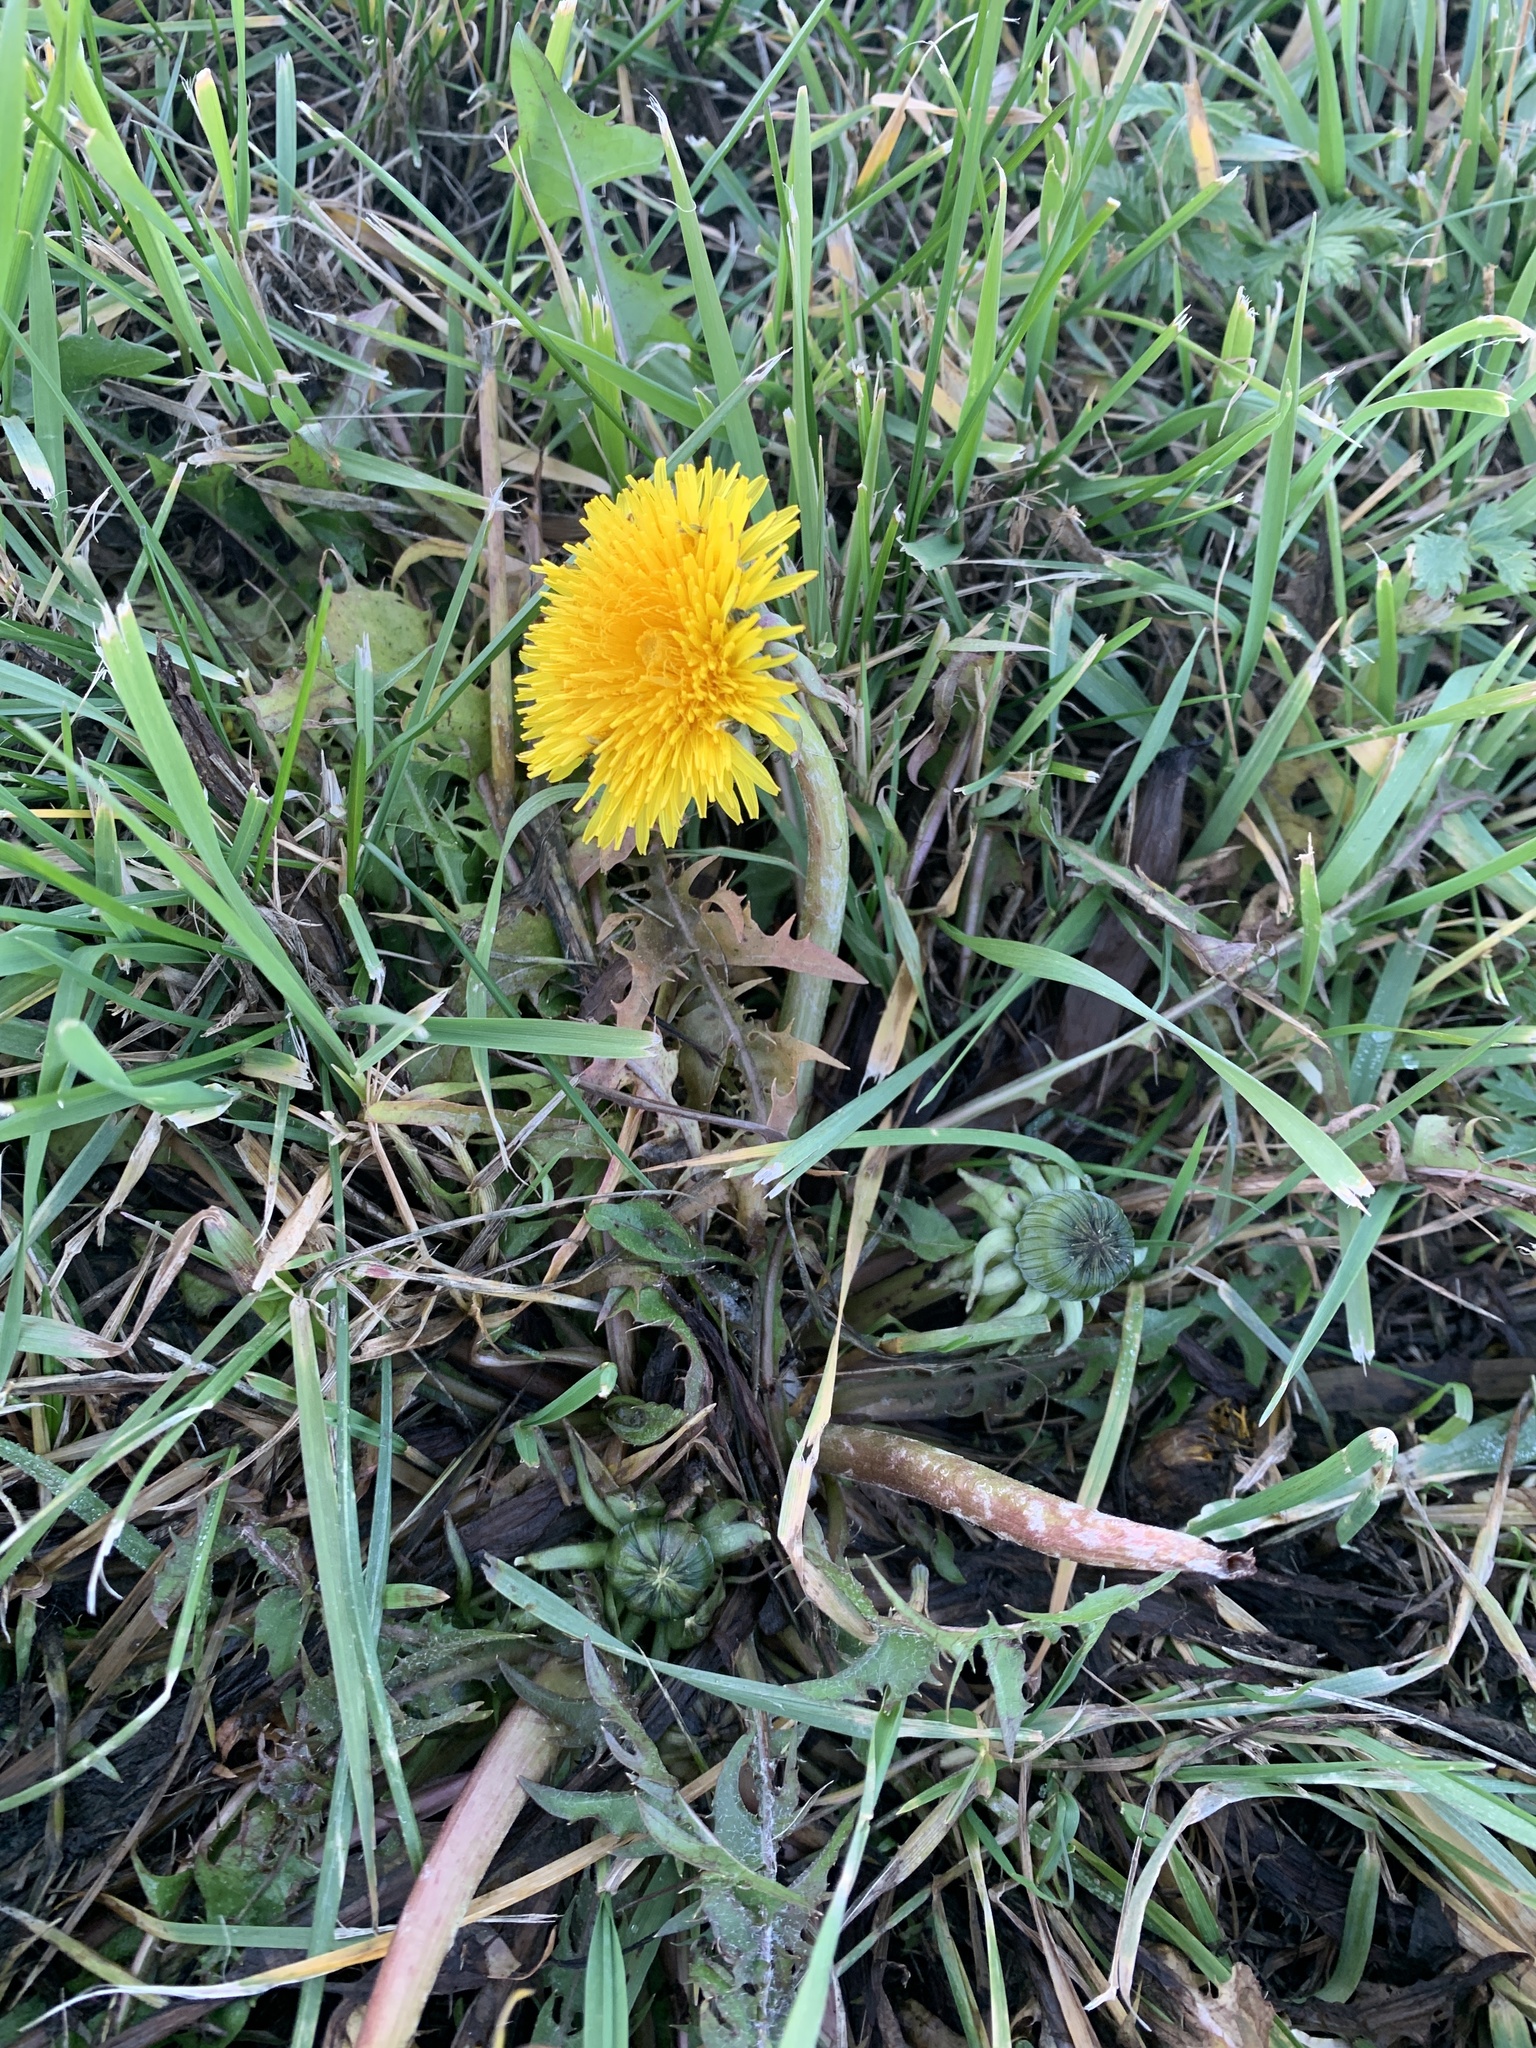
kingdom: Plantae
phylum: Tracheophyta
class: Magnoliopsida
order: Asterales
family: Asteraceae
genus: Taraxacum
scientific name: Taraxacum officinale
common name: Common dandelion
